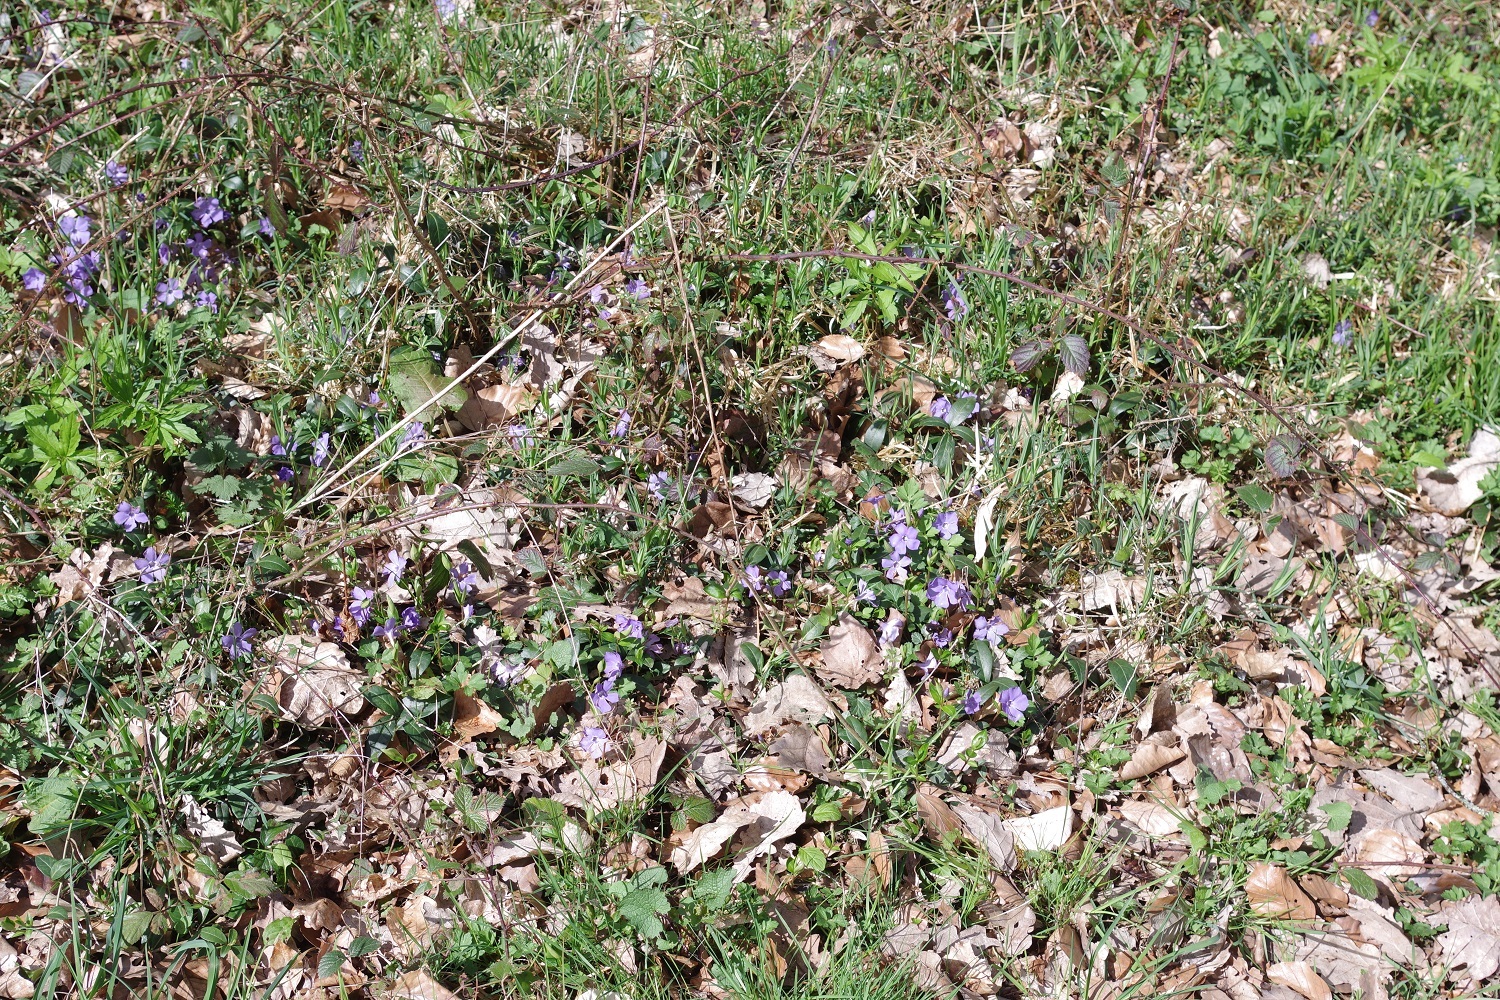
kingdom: Plantae
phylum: Tracheophyta
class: Magnoliopsida
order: Gentianales
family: Apocynaceae
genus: Vinca
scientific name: Vinca minor
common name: Lesser periwinkle
